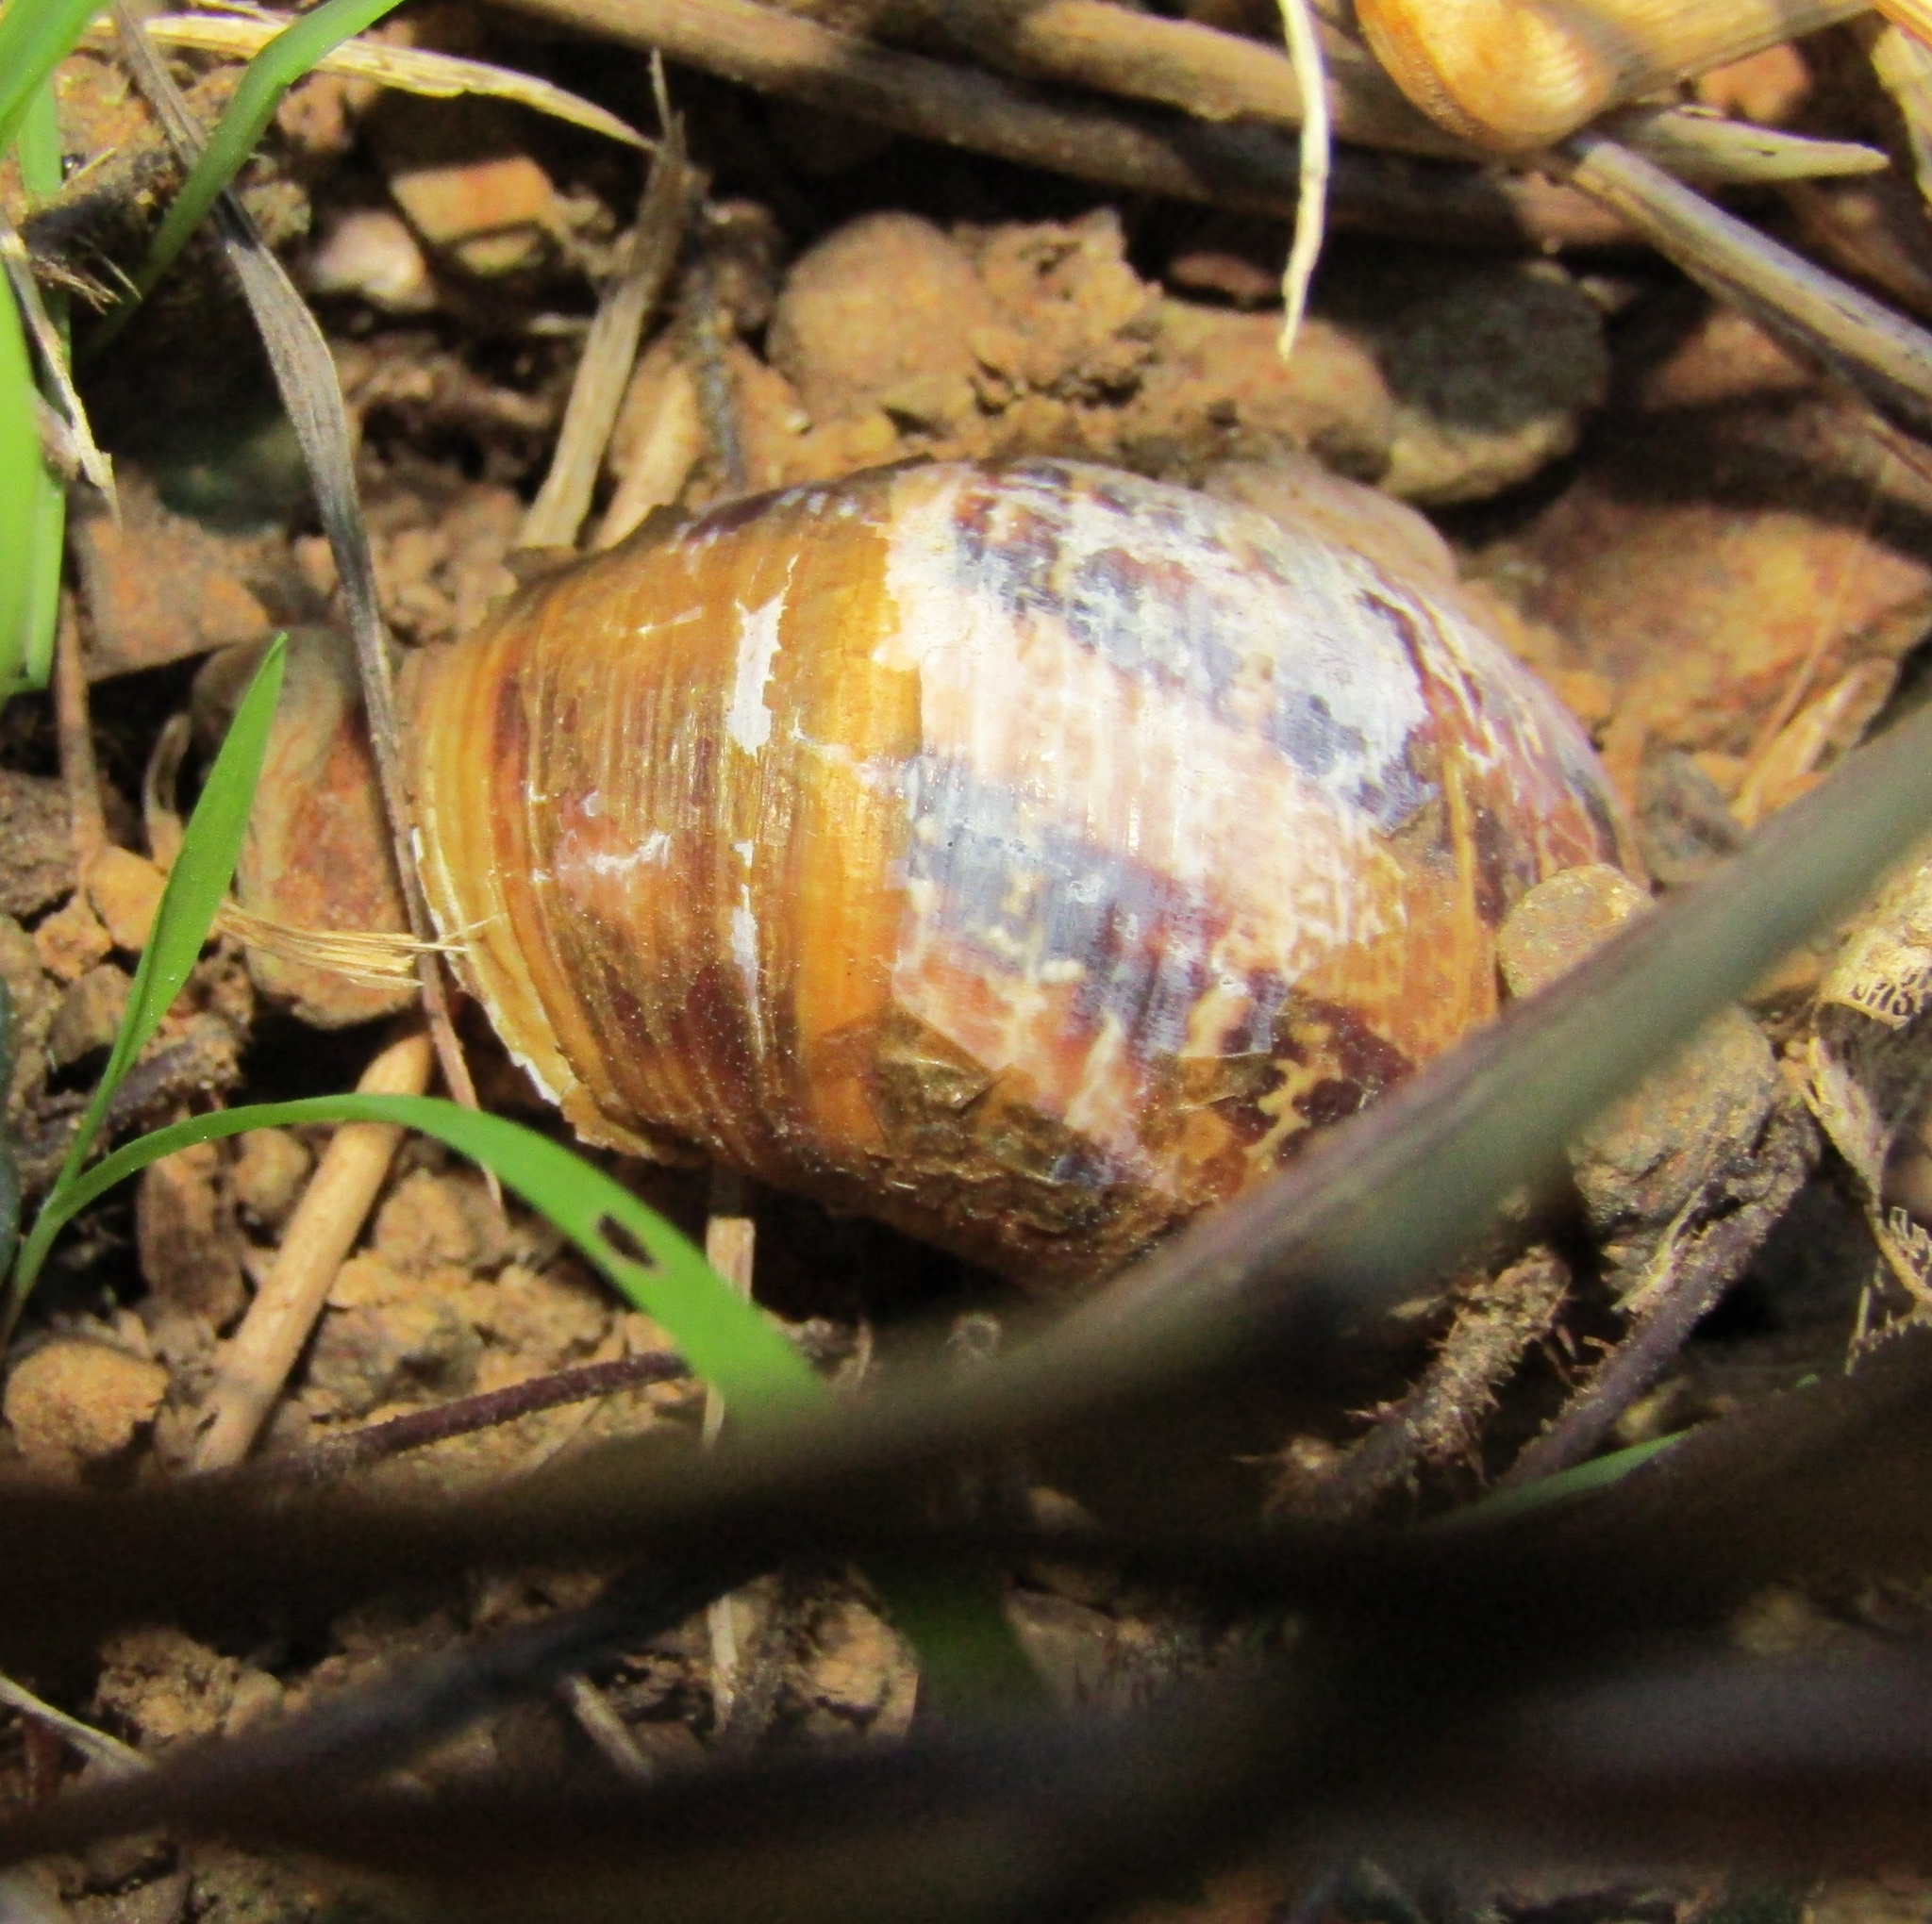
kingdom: Animalia
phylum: Mollusca
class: Gastropoda
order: Stylommatophora
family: Helicidae
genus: Cornu
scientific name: Cornu aspersum
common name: Brown garden snail
